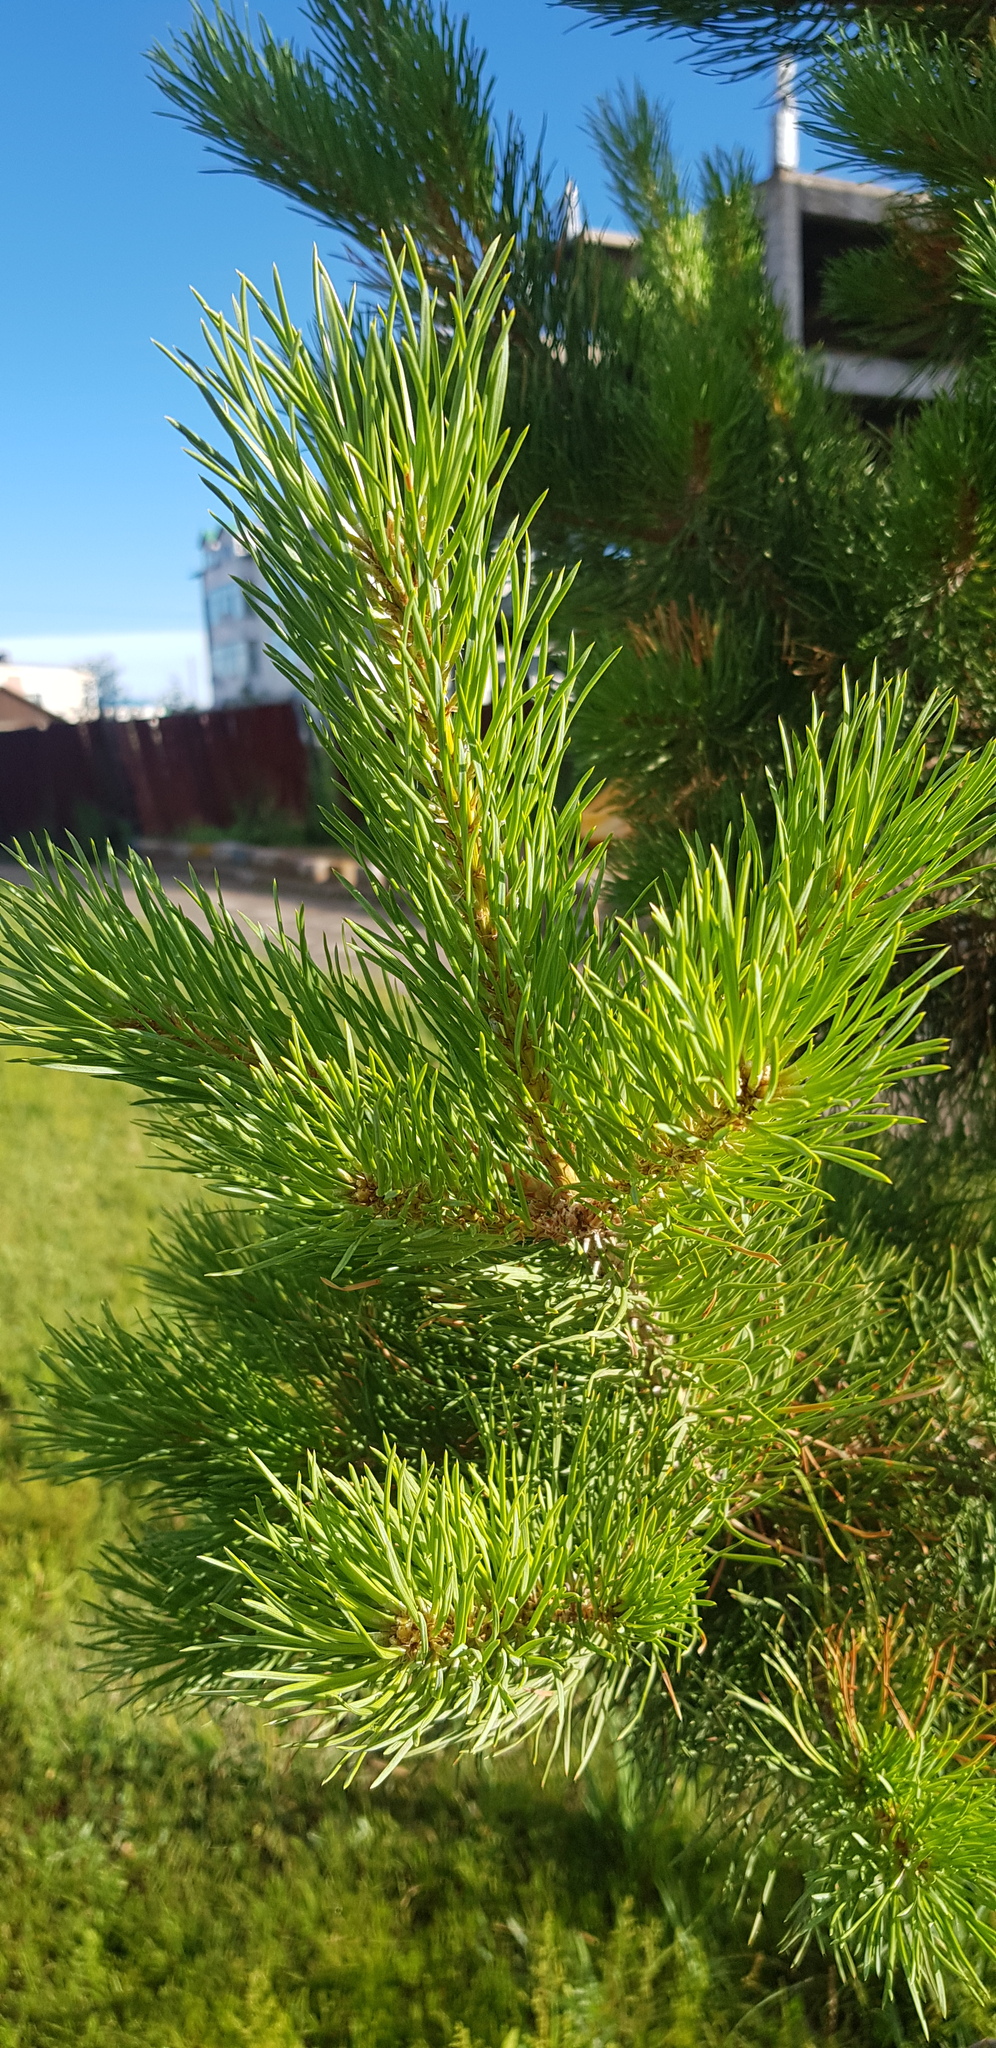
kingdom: Plantae
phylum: Tracheophyta
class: Pinopsida
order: Pinales
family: Pinaceae
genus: Pinus
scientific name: Pinus sylvestris
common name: Scots pine
